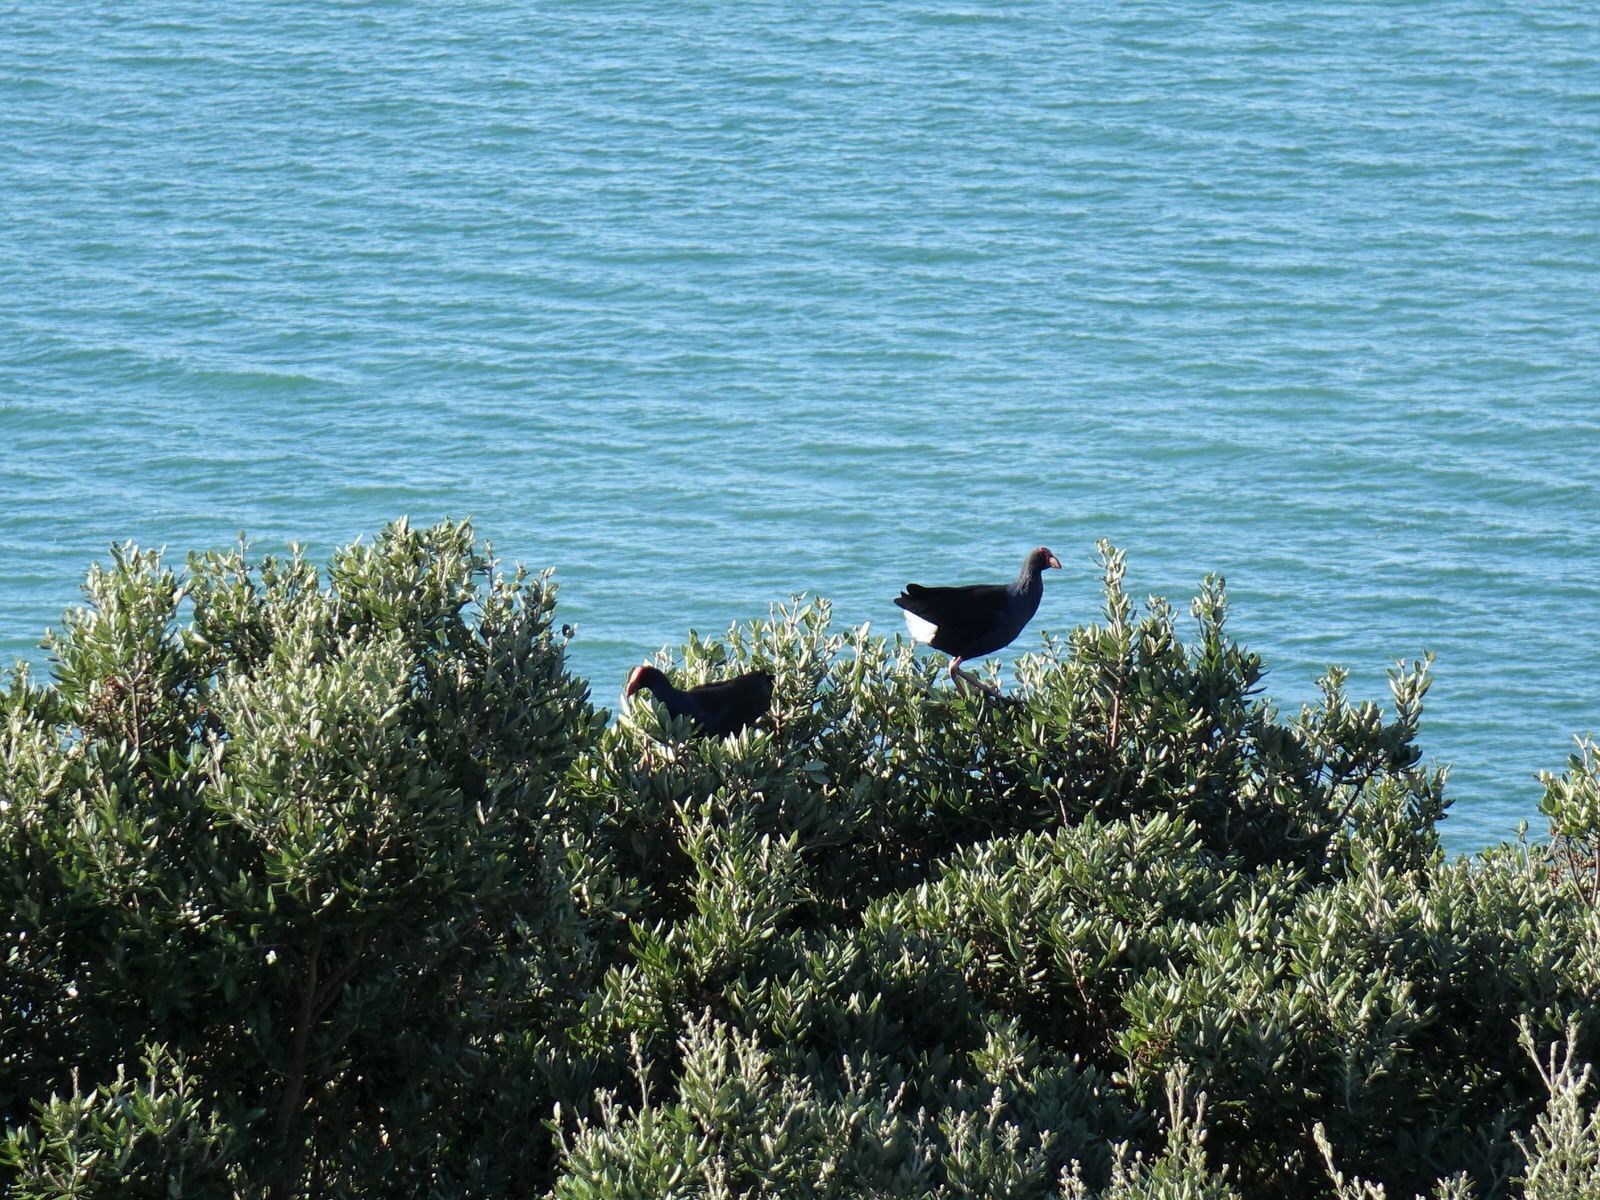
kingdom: Animalia
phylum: Chordata
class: Aves
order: Gruiformes
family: Rallidae
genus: Porphyrio
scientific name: Porphyrio melanotus
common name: Australasian swamphen
